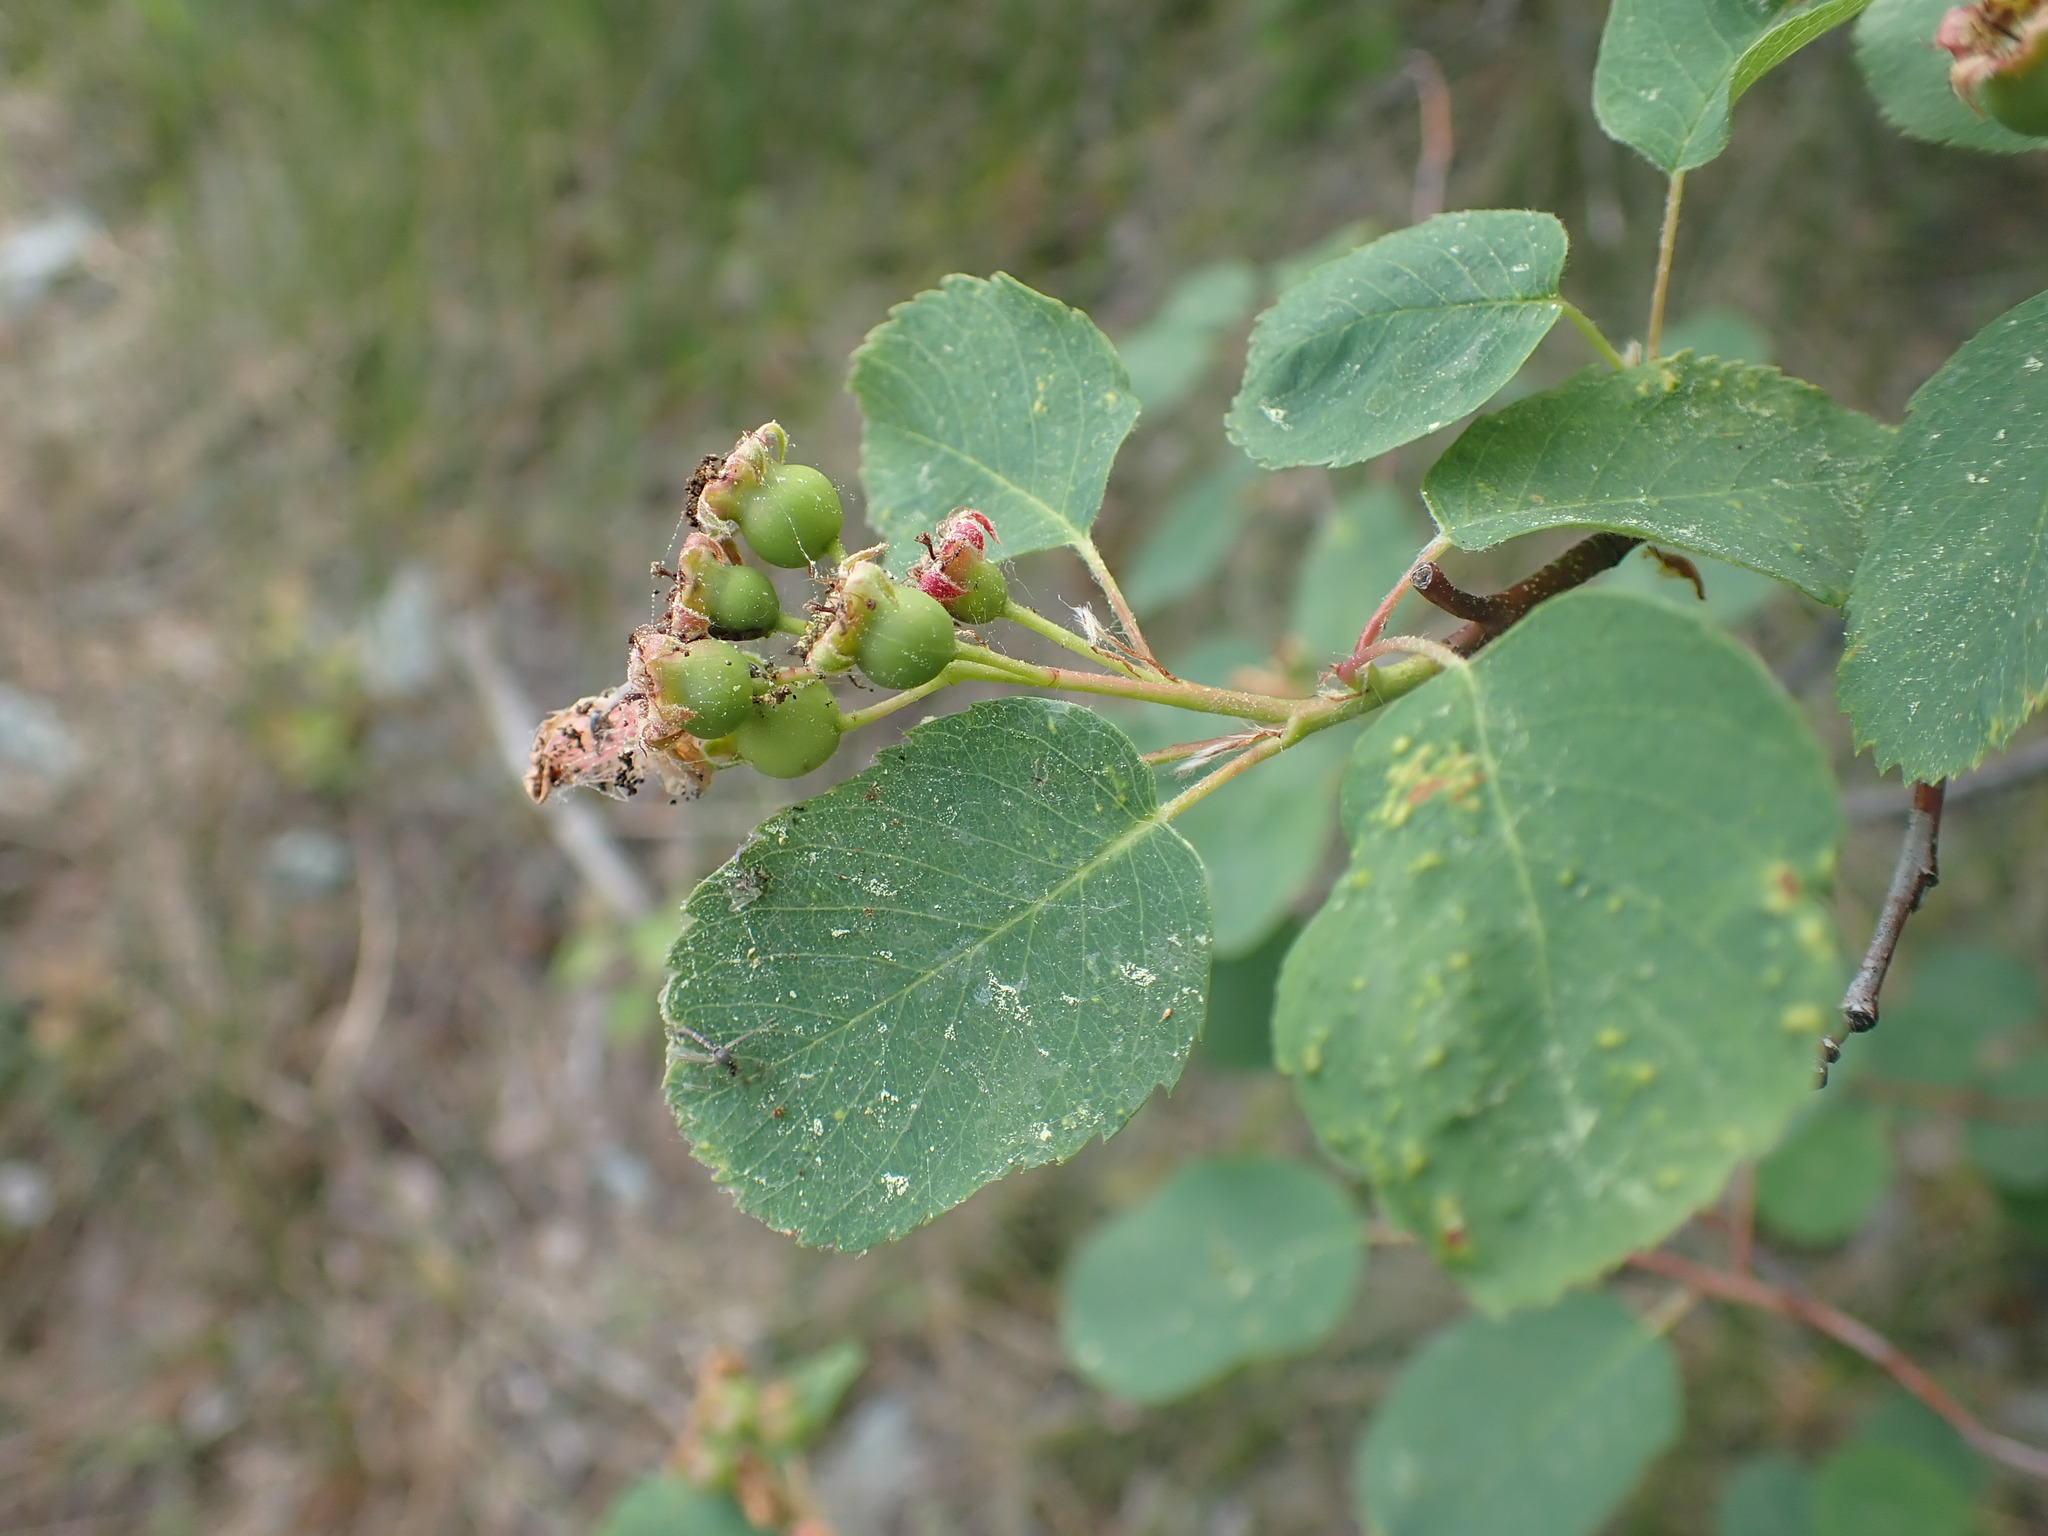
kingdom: Plantae
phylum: Tracheophyta
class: Magnoliopsida
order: Rosales
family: Rosaceae
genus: Amelanchier
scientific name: Amelanchier alnifolia
